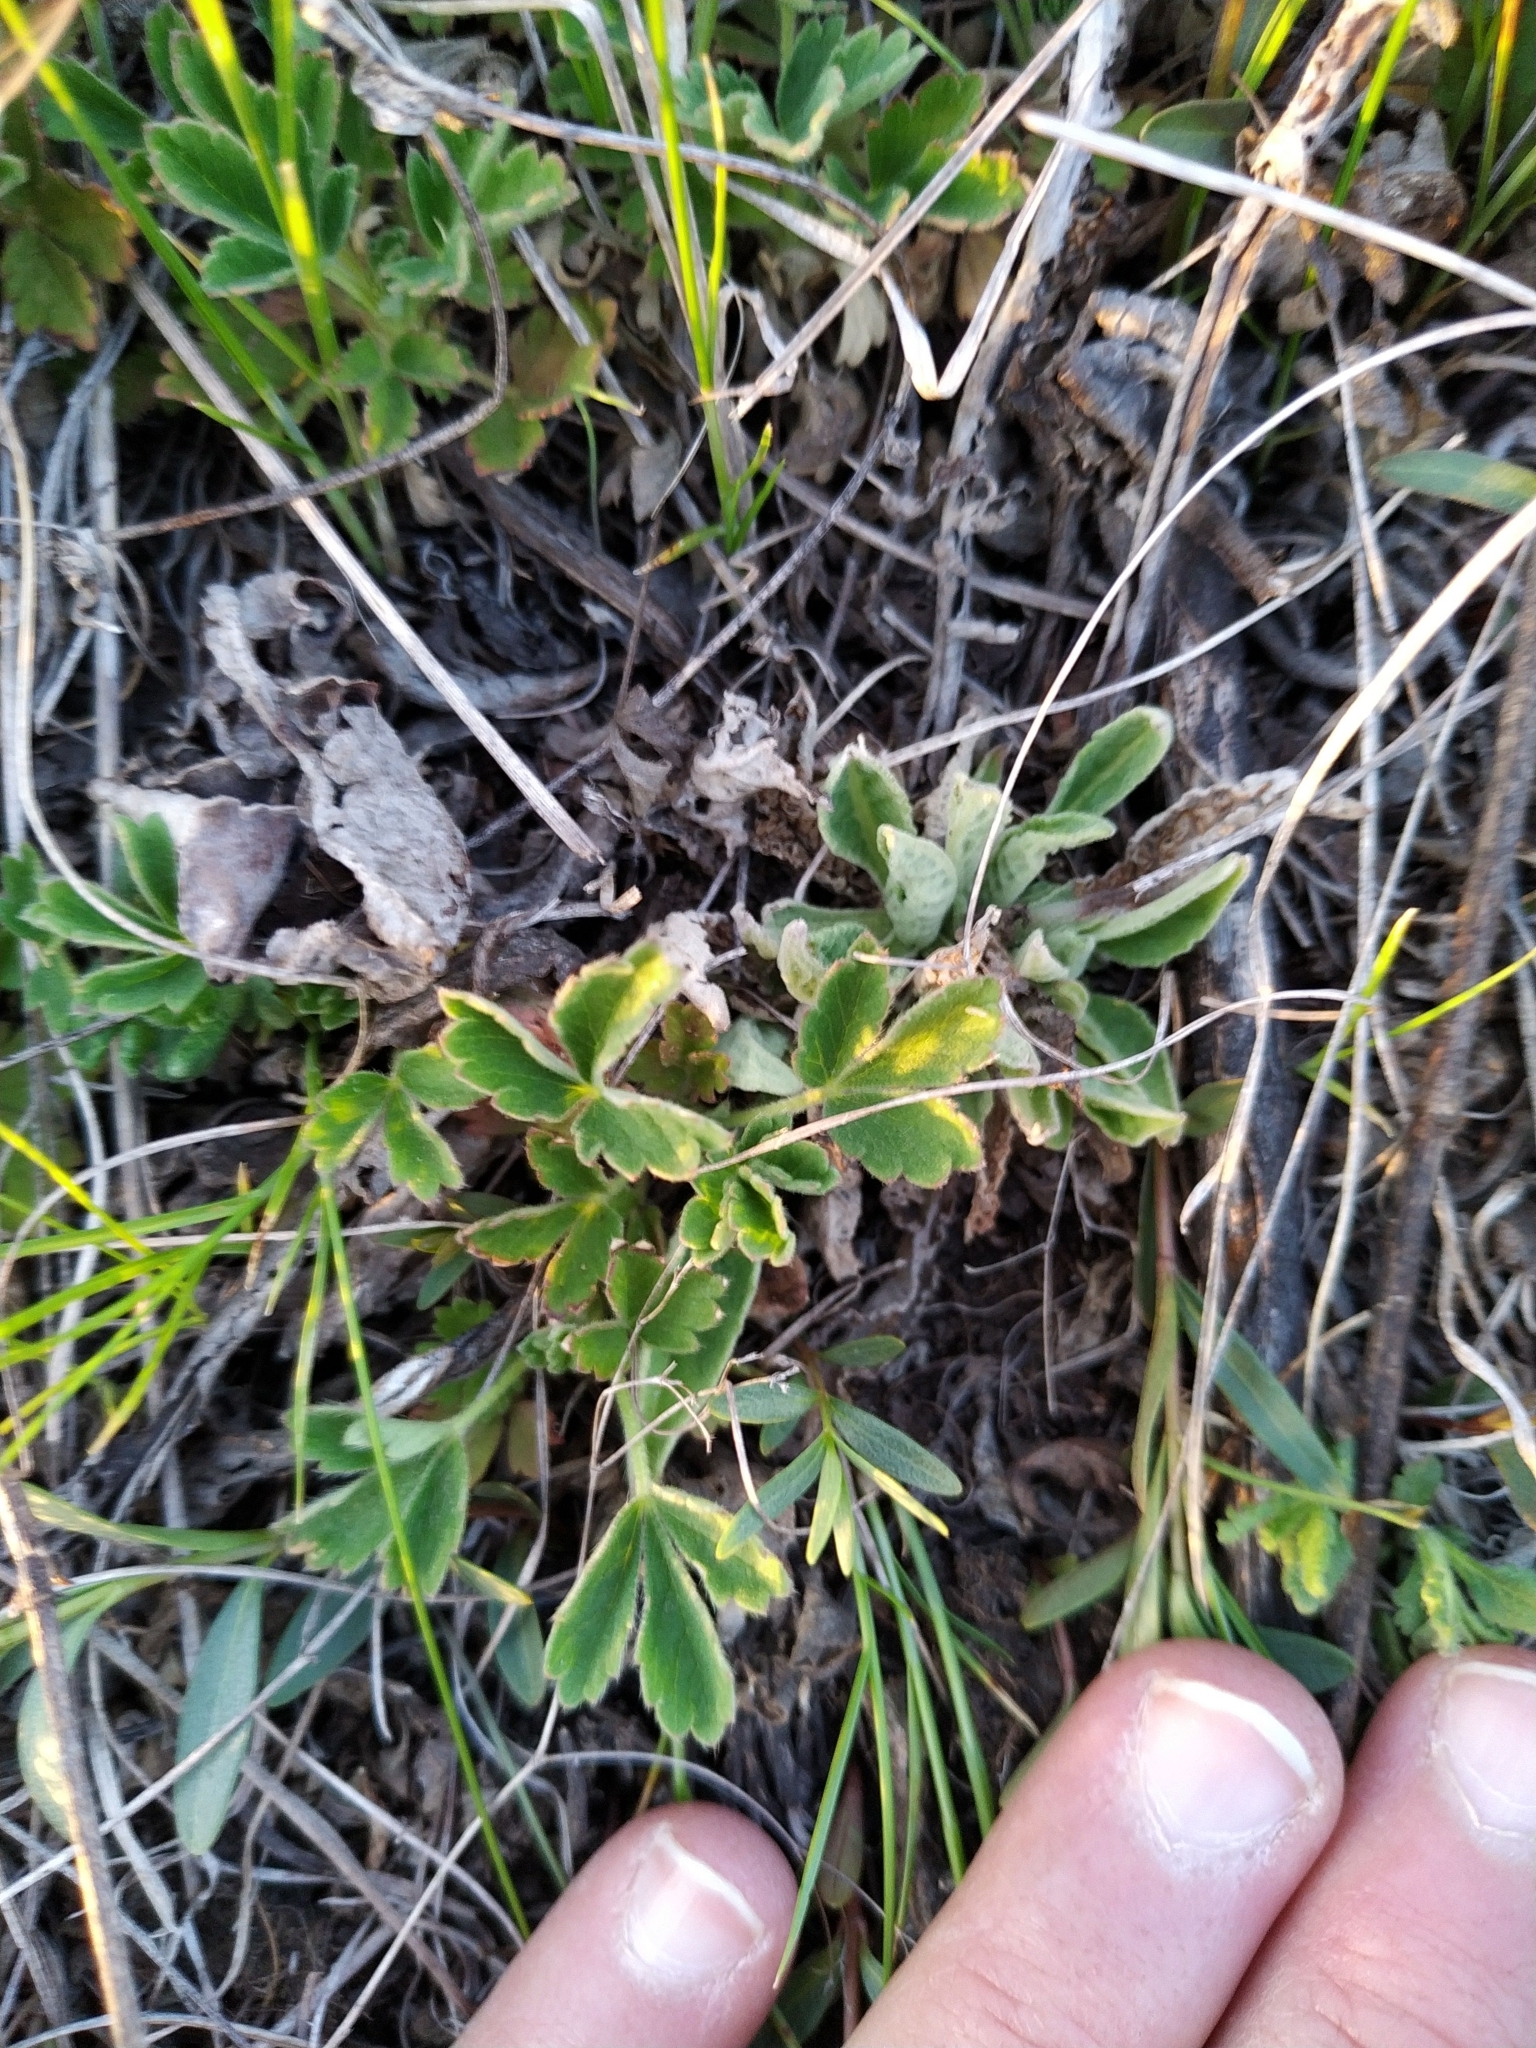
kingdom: Plantae
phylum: Tracheophyta
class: Magnoliopsida
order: Rosales
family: Rosaceae
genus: Potentilla
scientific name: Potentilla incana
